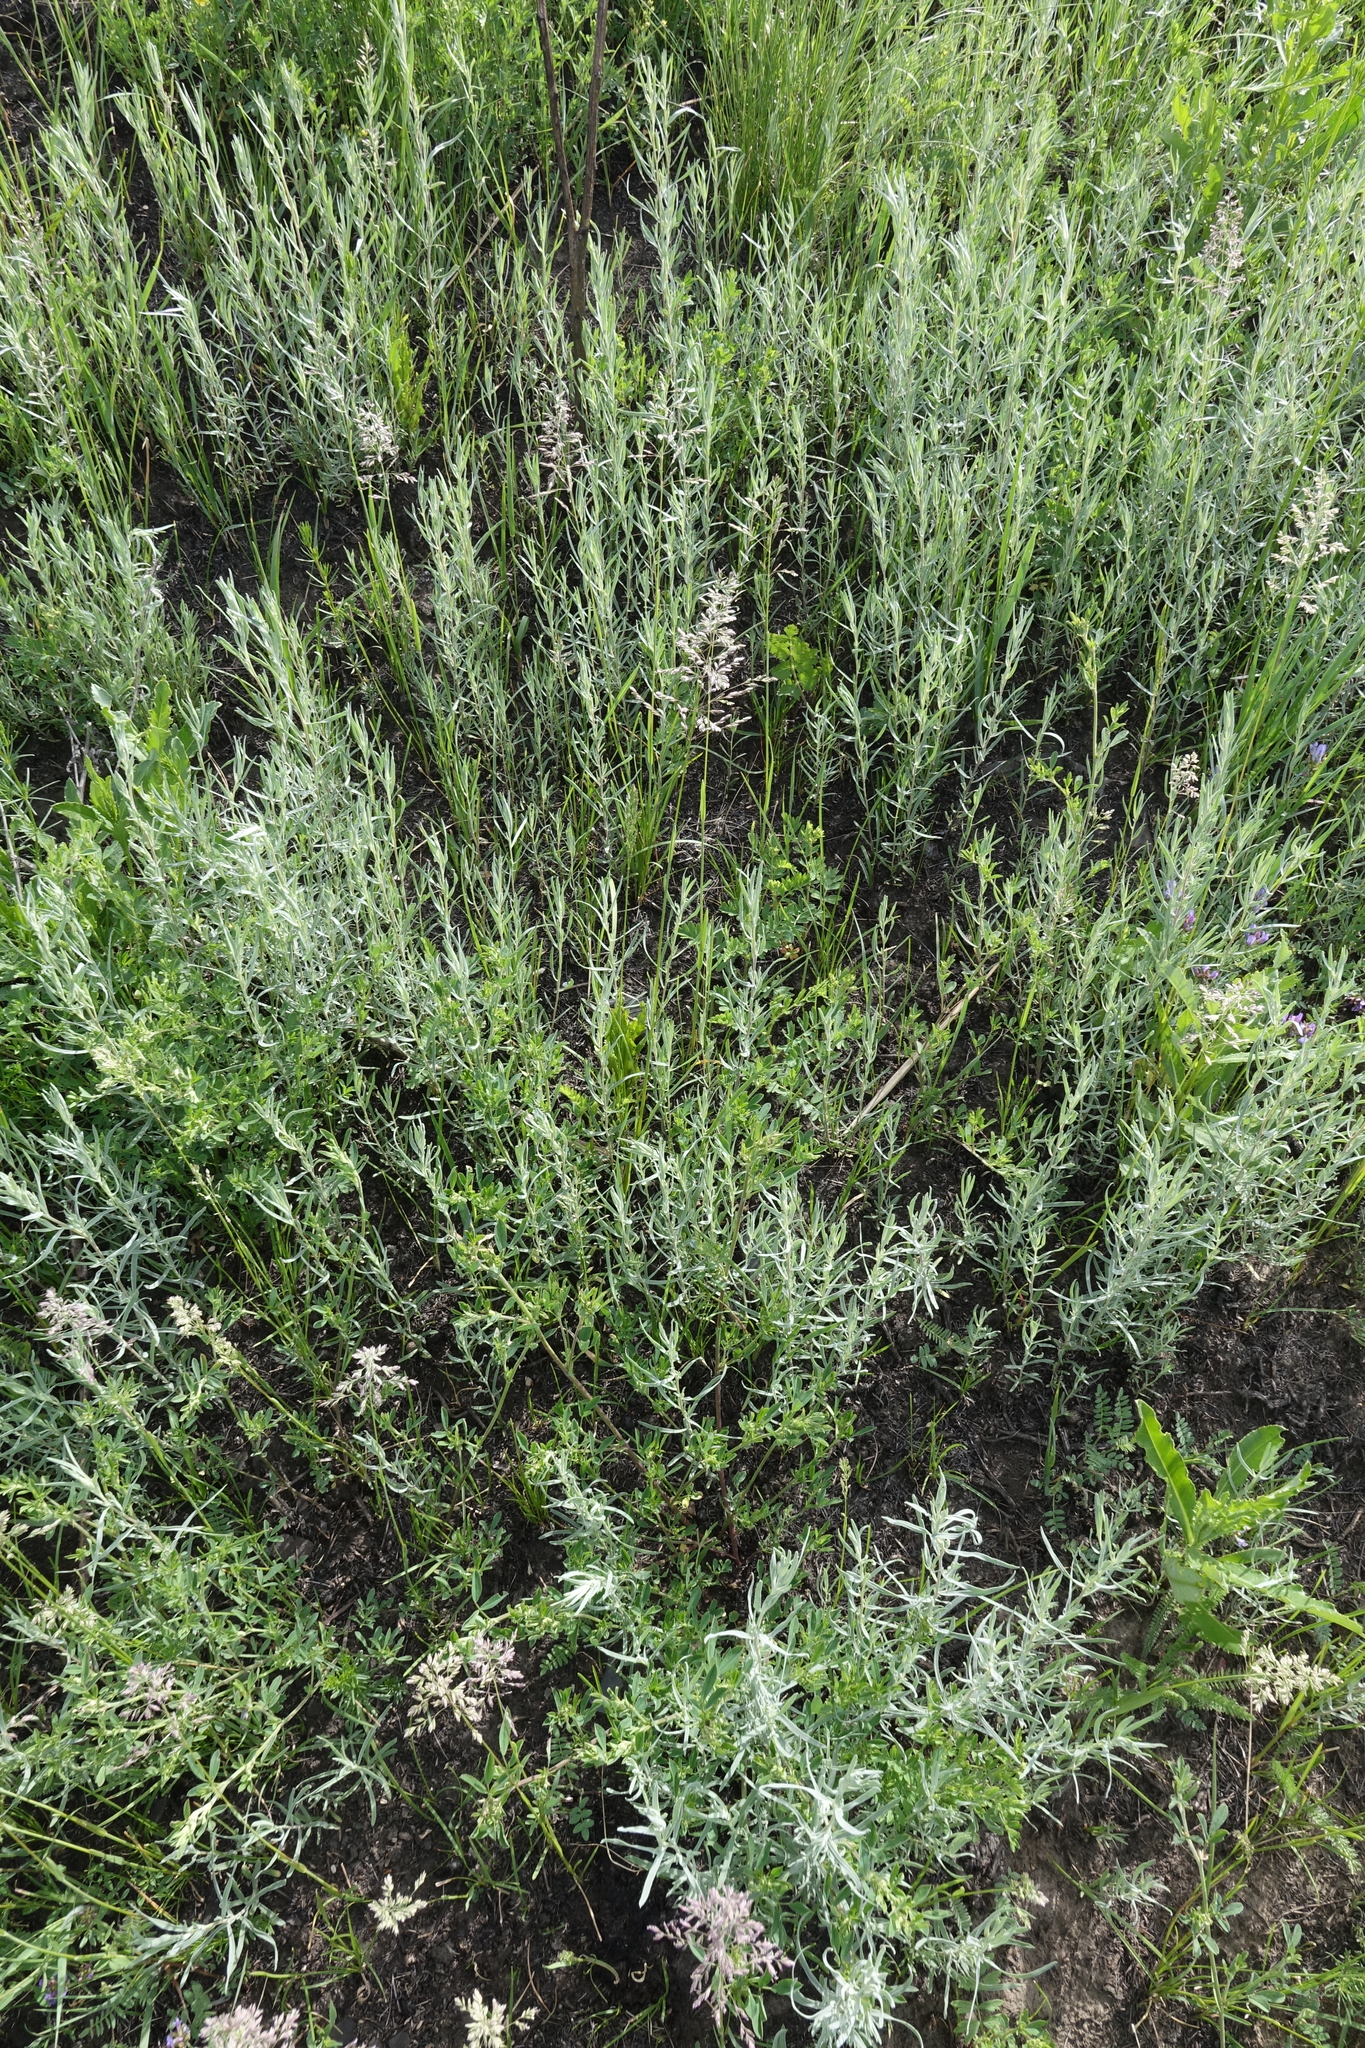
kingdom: Plantae
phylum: Tracheophyta
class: Magnoliopsida
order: Asterales
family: Asteraceae
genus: Artemisia
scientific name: Artemisia glauca
